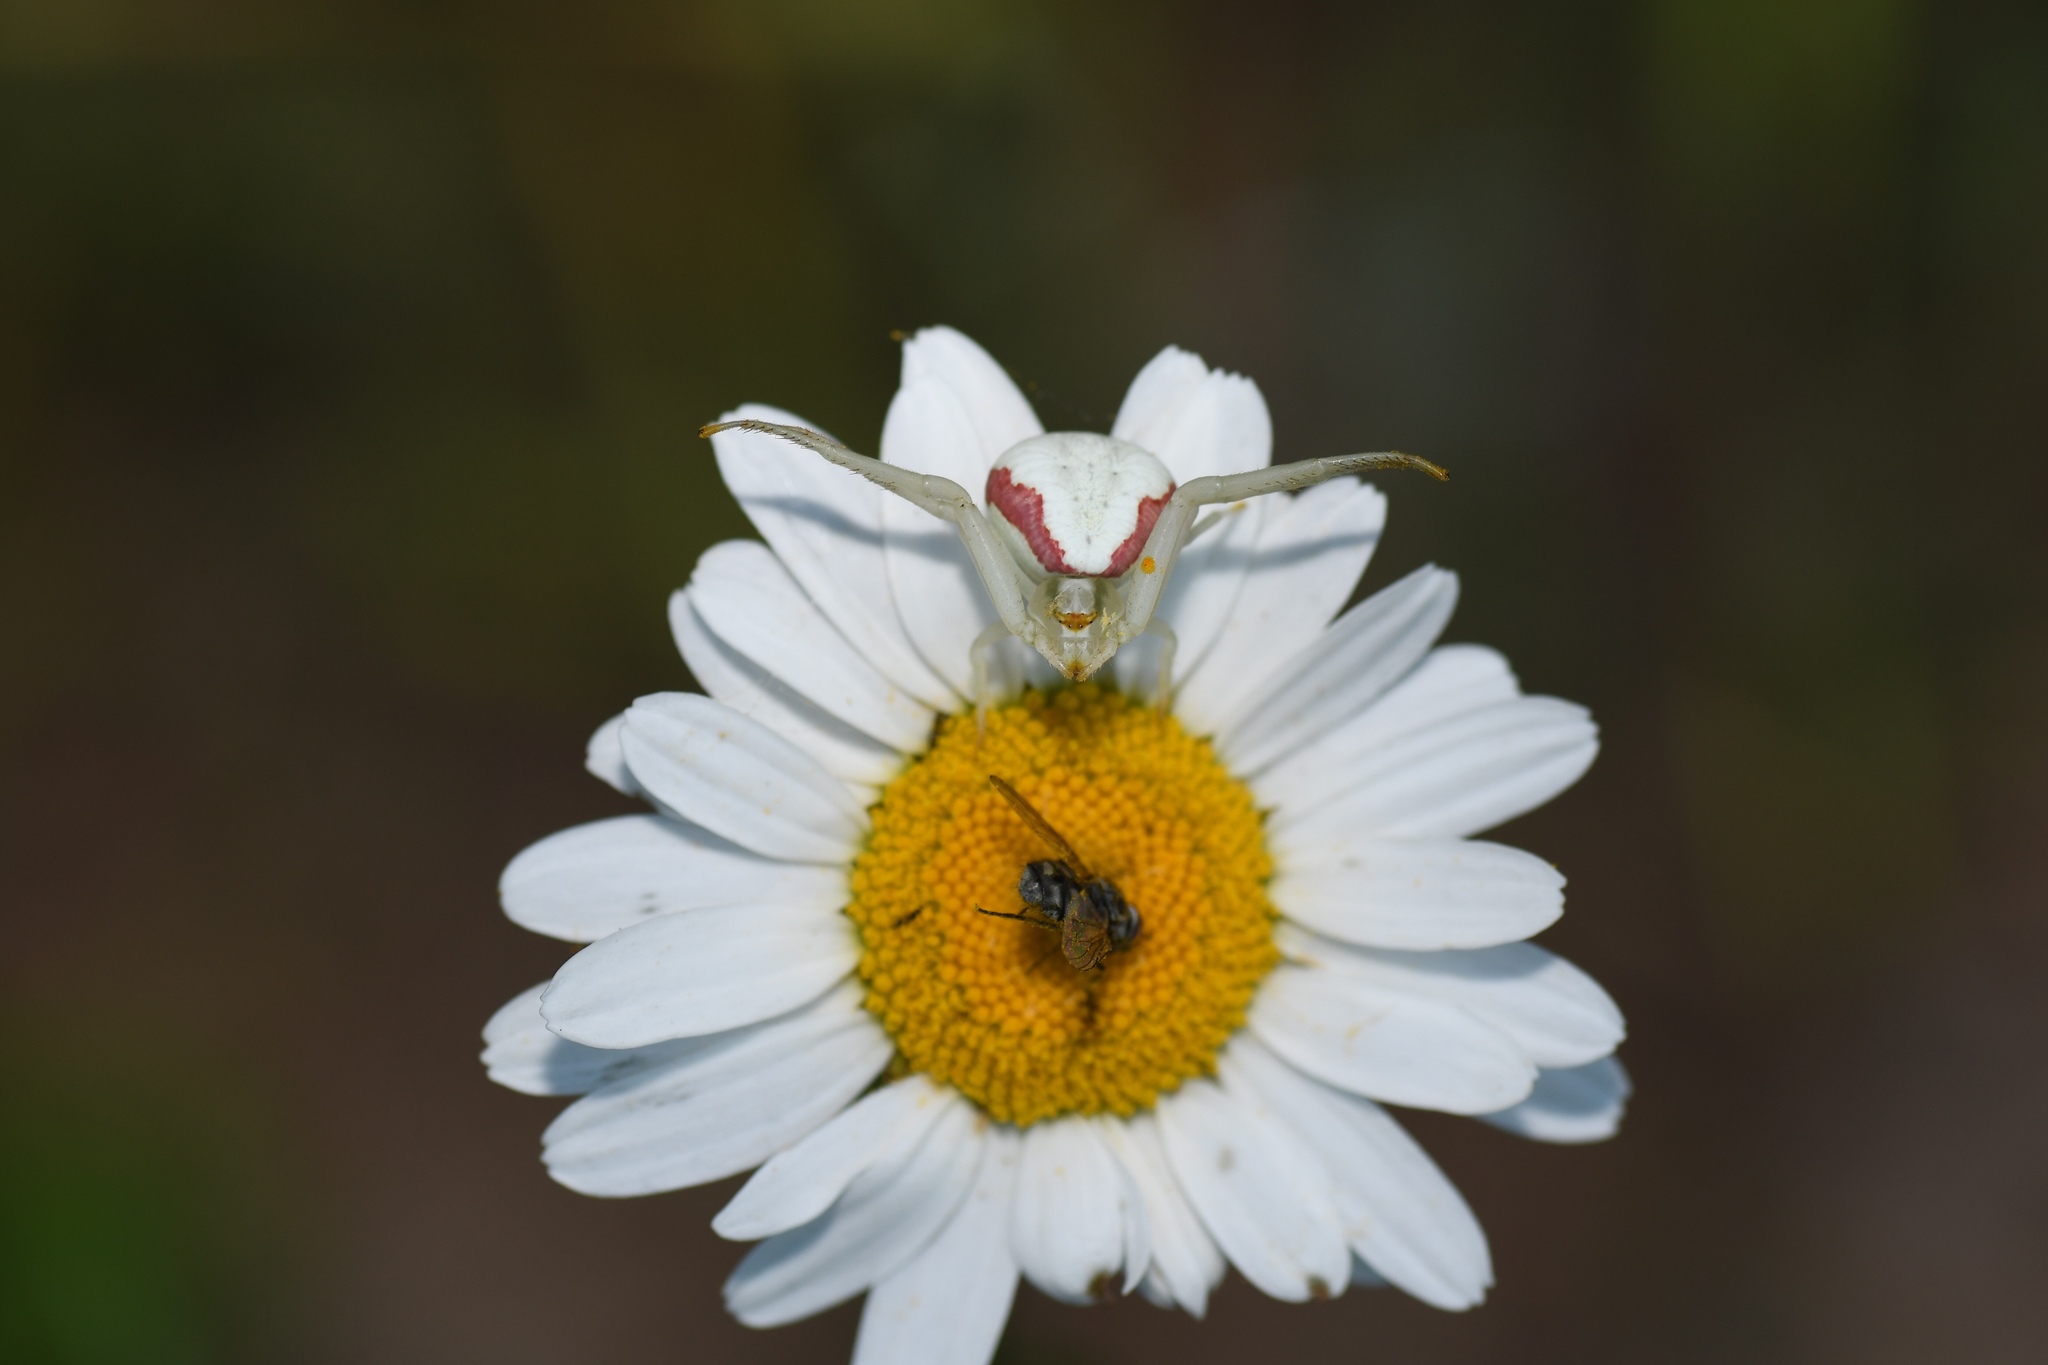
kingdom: Animalia
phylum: Arthropoda
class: Arachnida
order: Araneae
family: Thomisidae
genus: Misumena
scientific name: Misumena vatia
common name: Goldenrod crab spider
